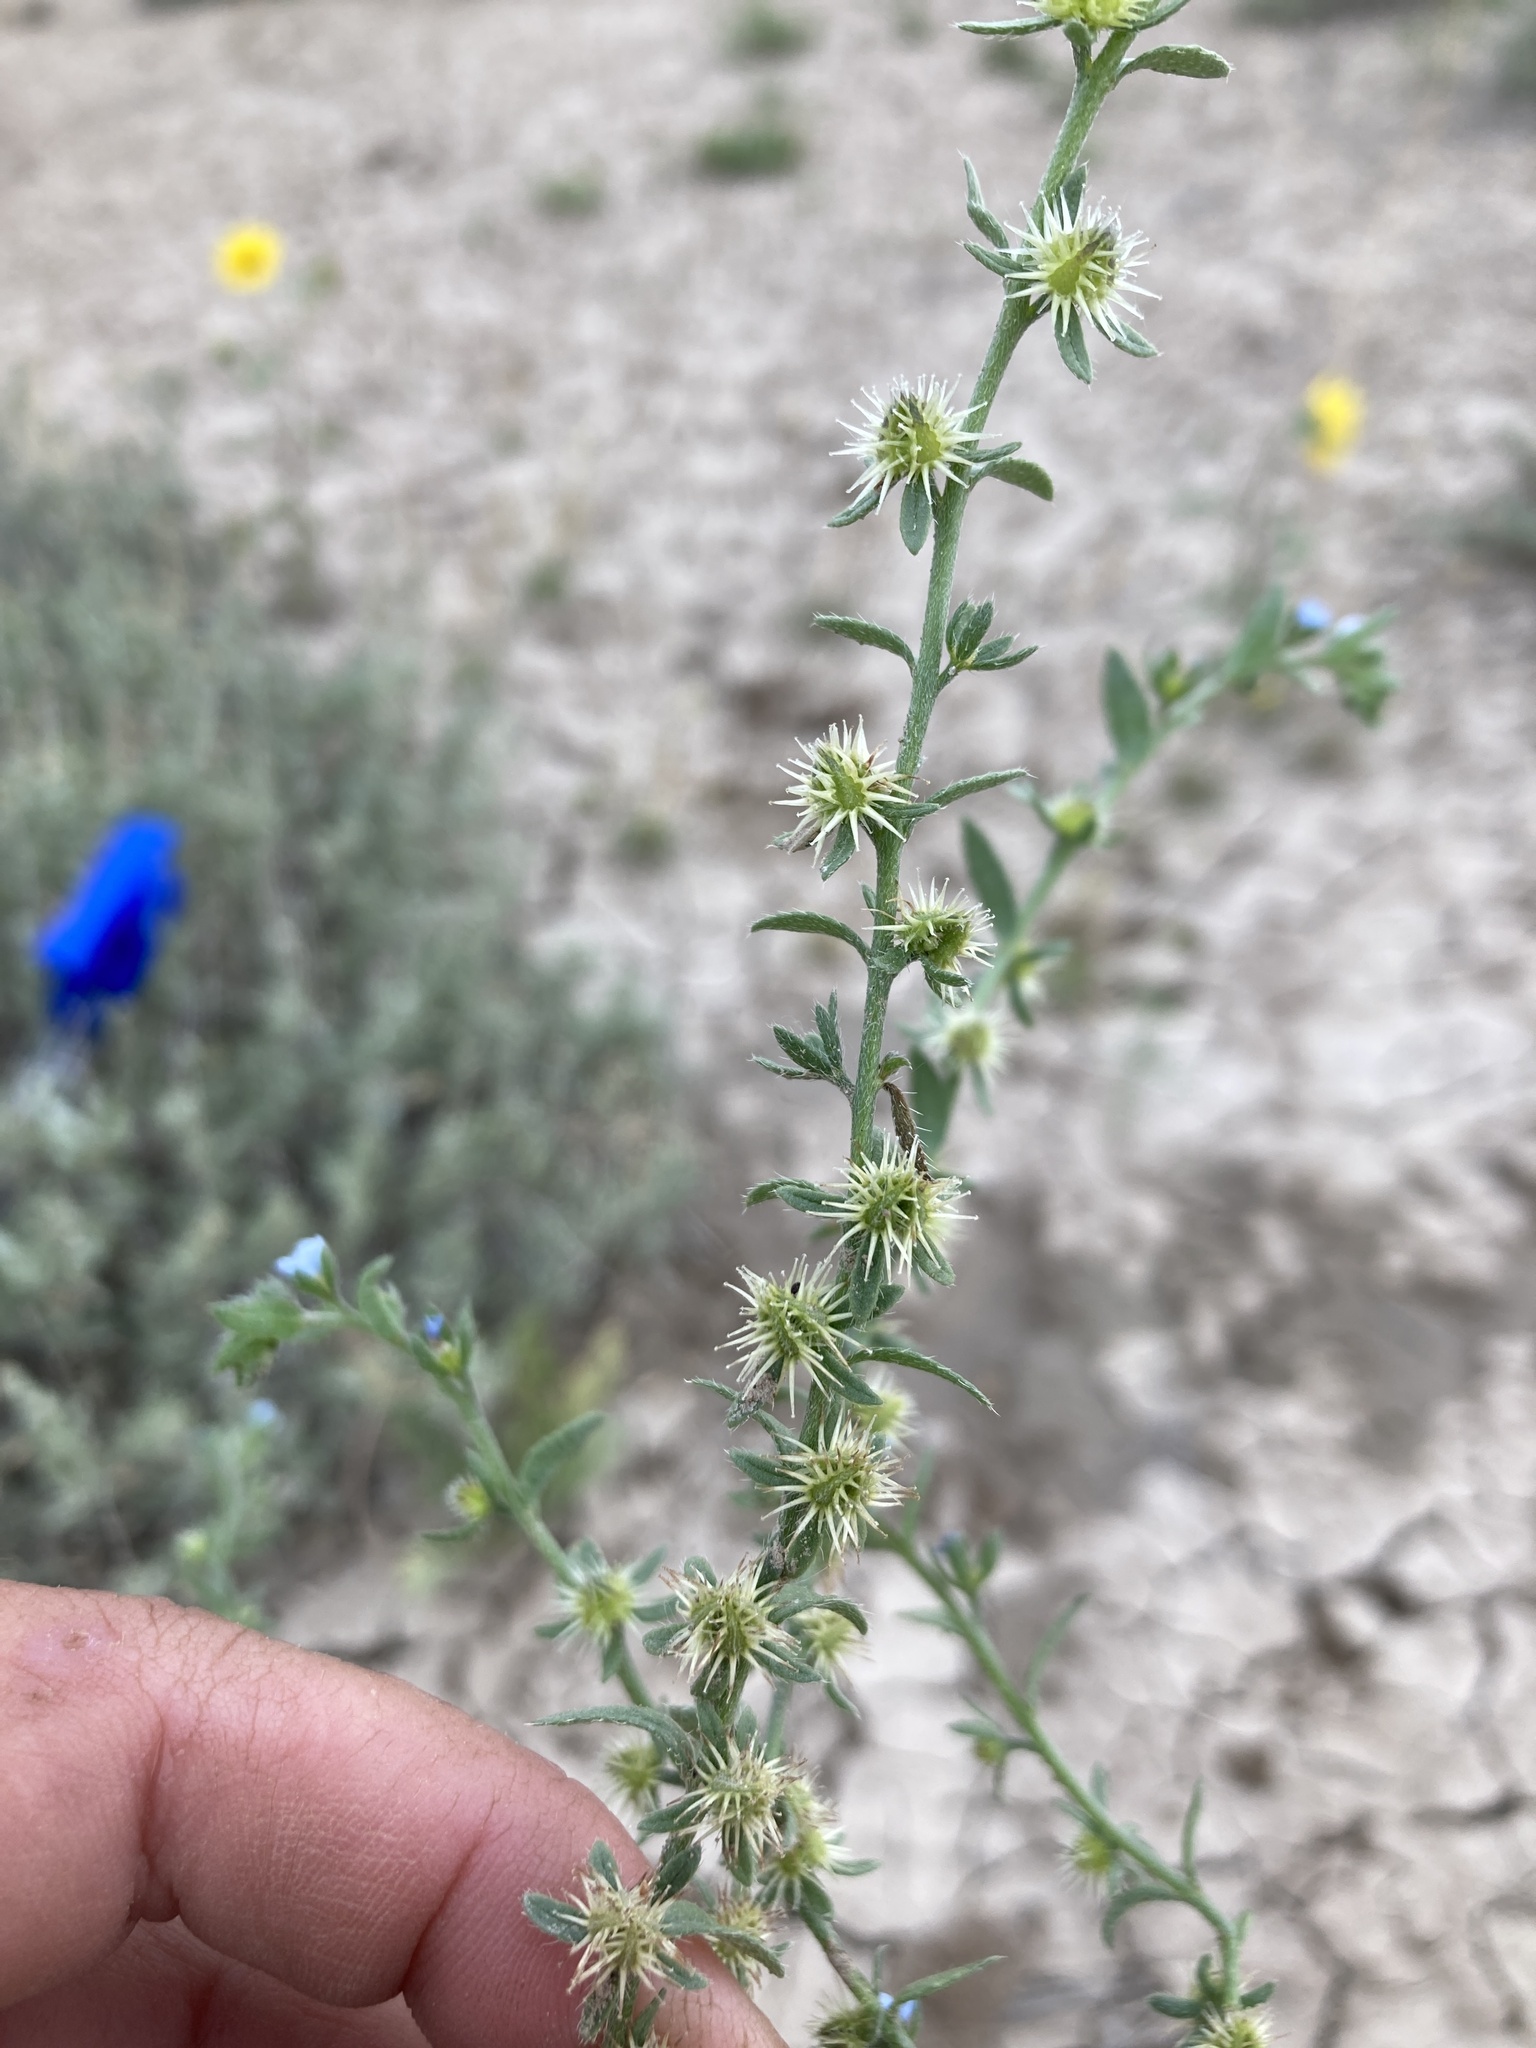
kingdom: Plantae
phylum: Tracheophyta
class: Magnoliopsida
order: Boraginales
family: Boraginaceae
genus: Lappula
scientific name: Lappula occidentalis
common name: Western stickseed
